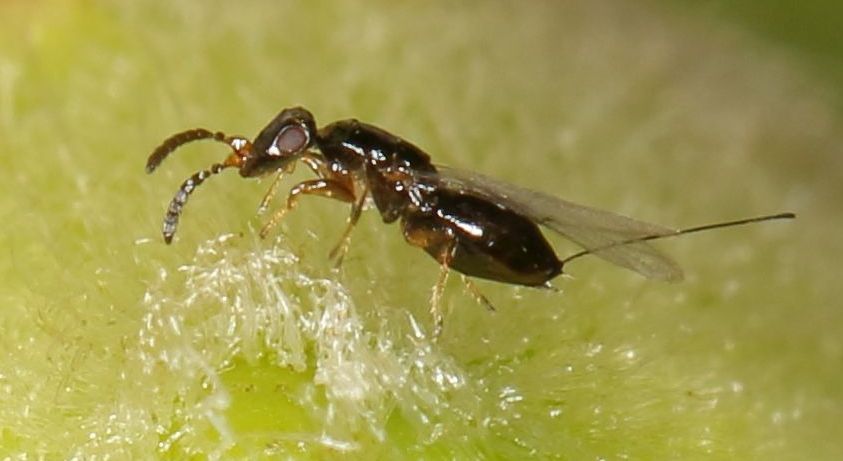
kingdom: Animalia
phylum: Arthropoda
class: Insecta
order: Hymenoptera
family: Agaonidae
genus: Elisabethiella
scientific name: Elisabethiella stueckenbergi
